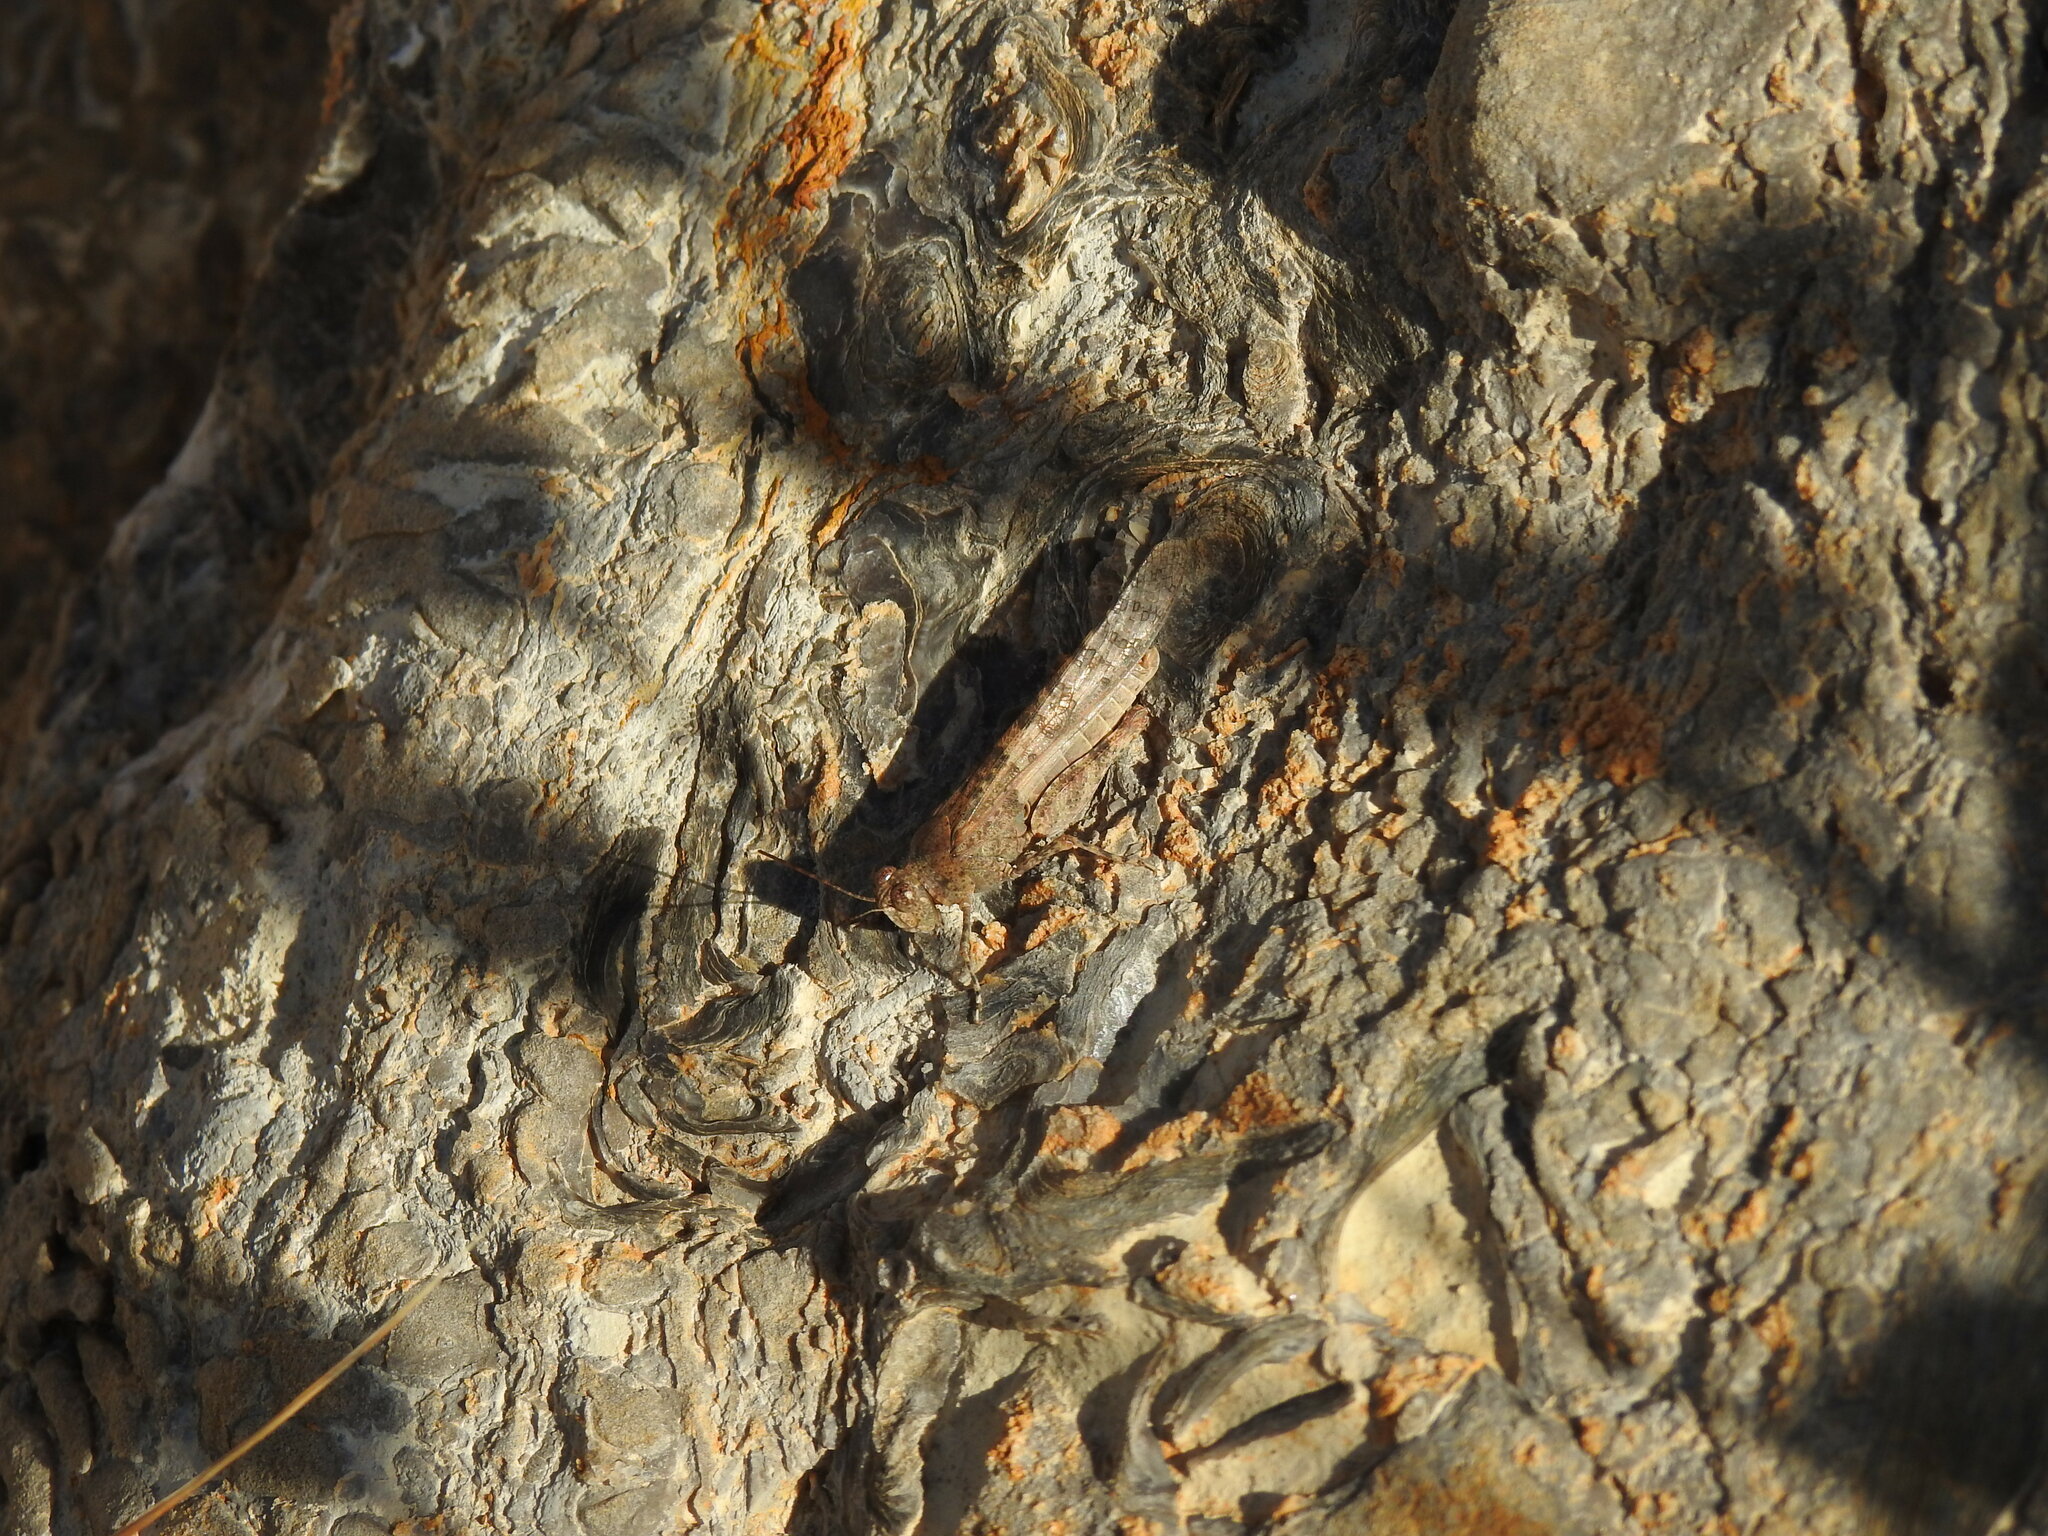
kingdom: Animalia
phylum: Arthropoda
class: Insecta
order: Orthoptera
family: Acrididae
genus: Sphingonotus
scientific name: Sphingonotus rubescens
